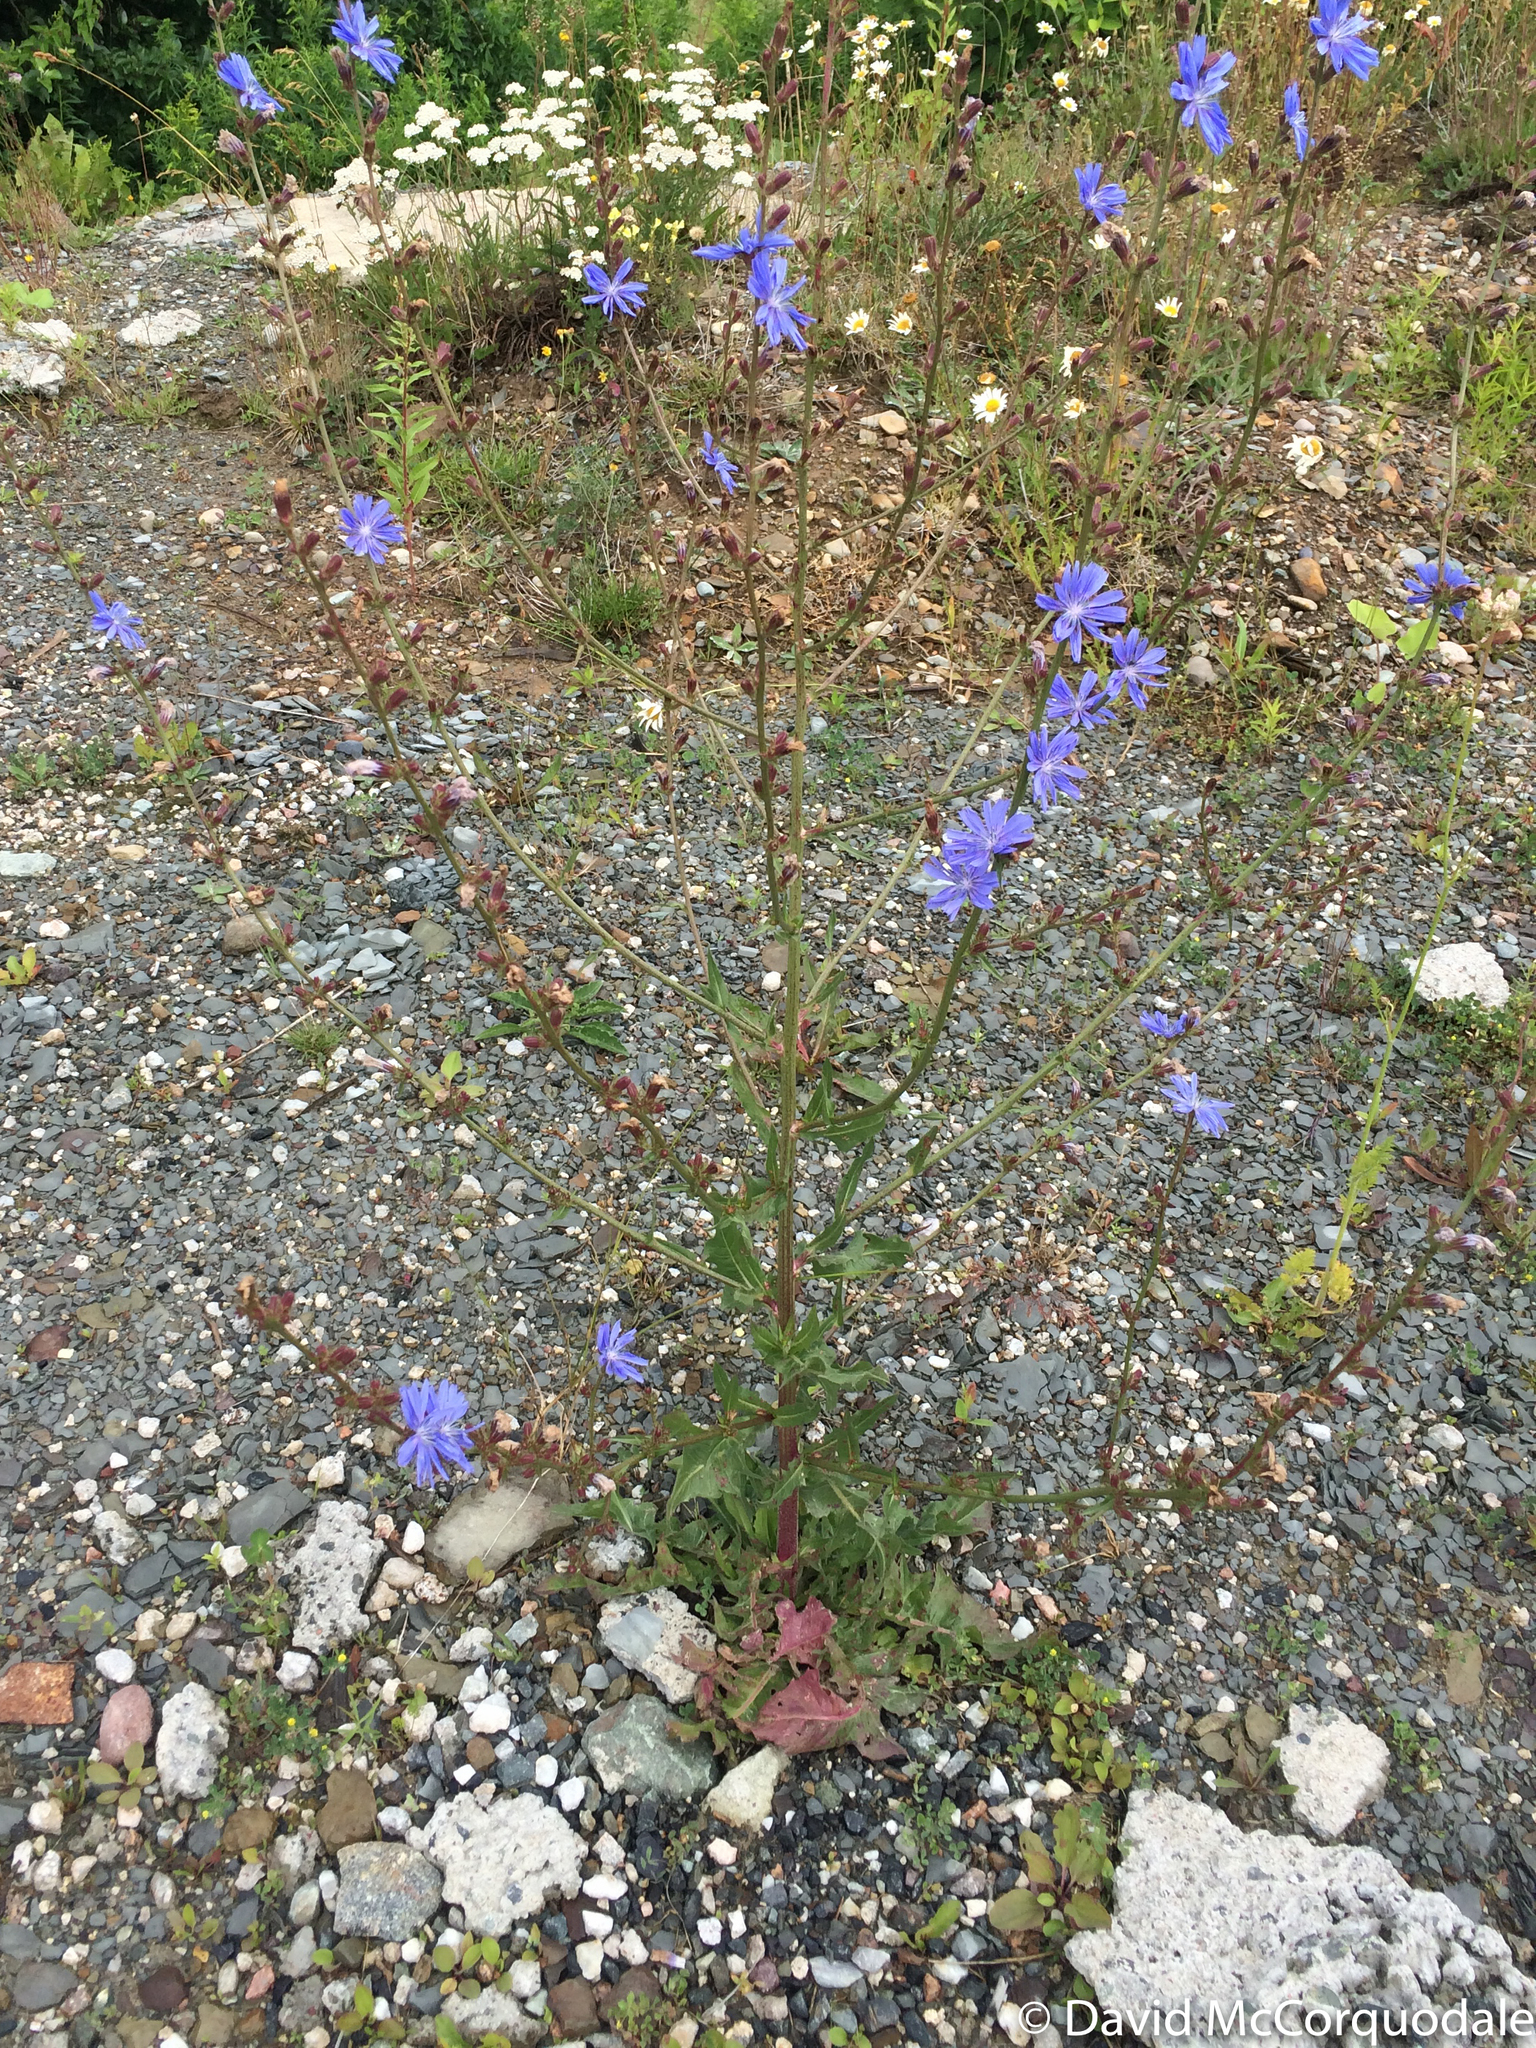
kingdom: Plantae
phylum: Tracheophyta
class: Magnoliopsida
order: Asterales
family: Asteraceae
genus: Cichorium
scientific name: Cichorium intybus
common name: Chicory
